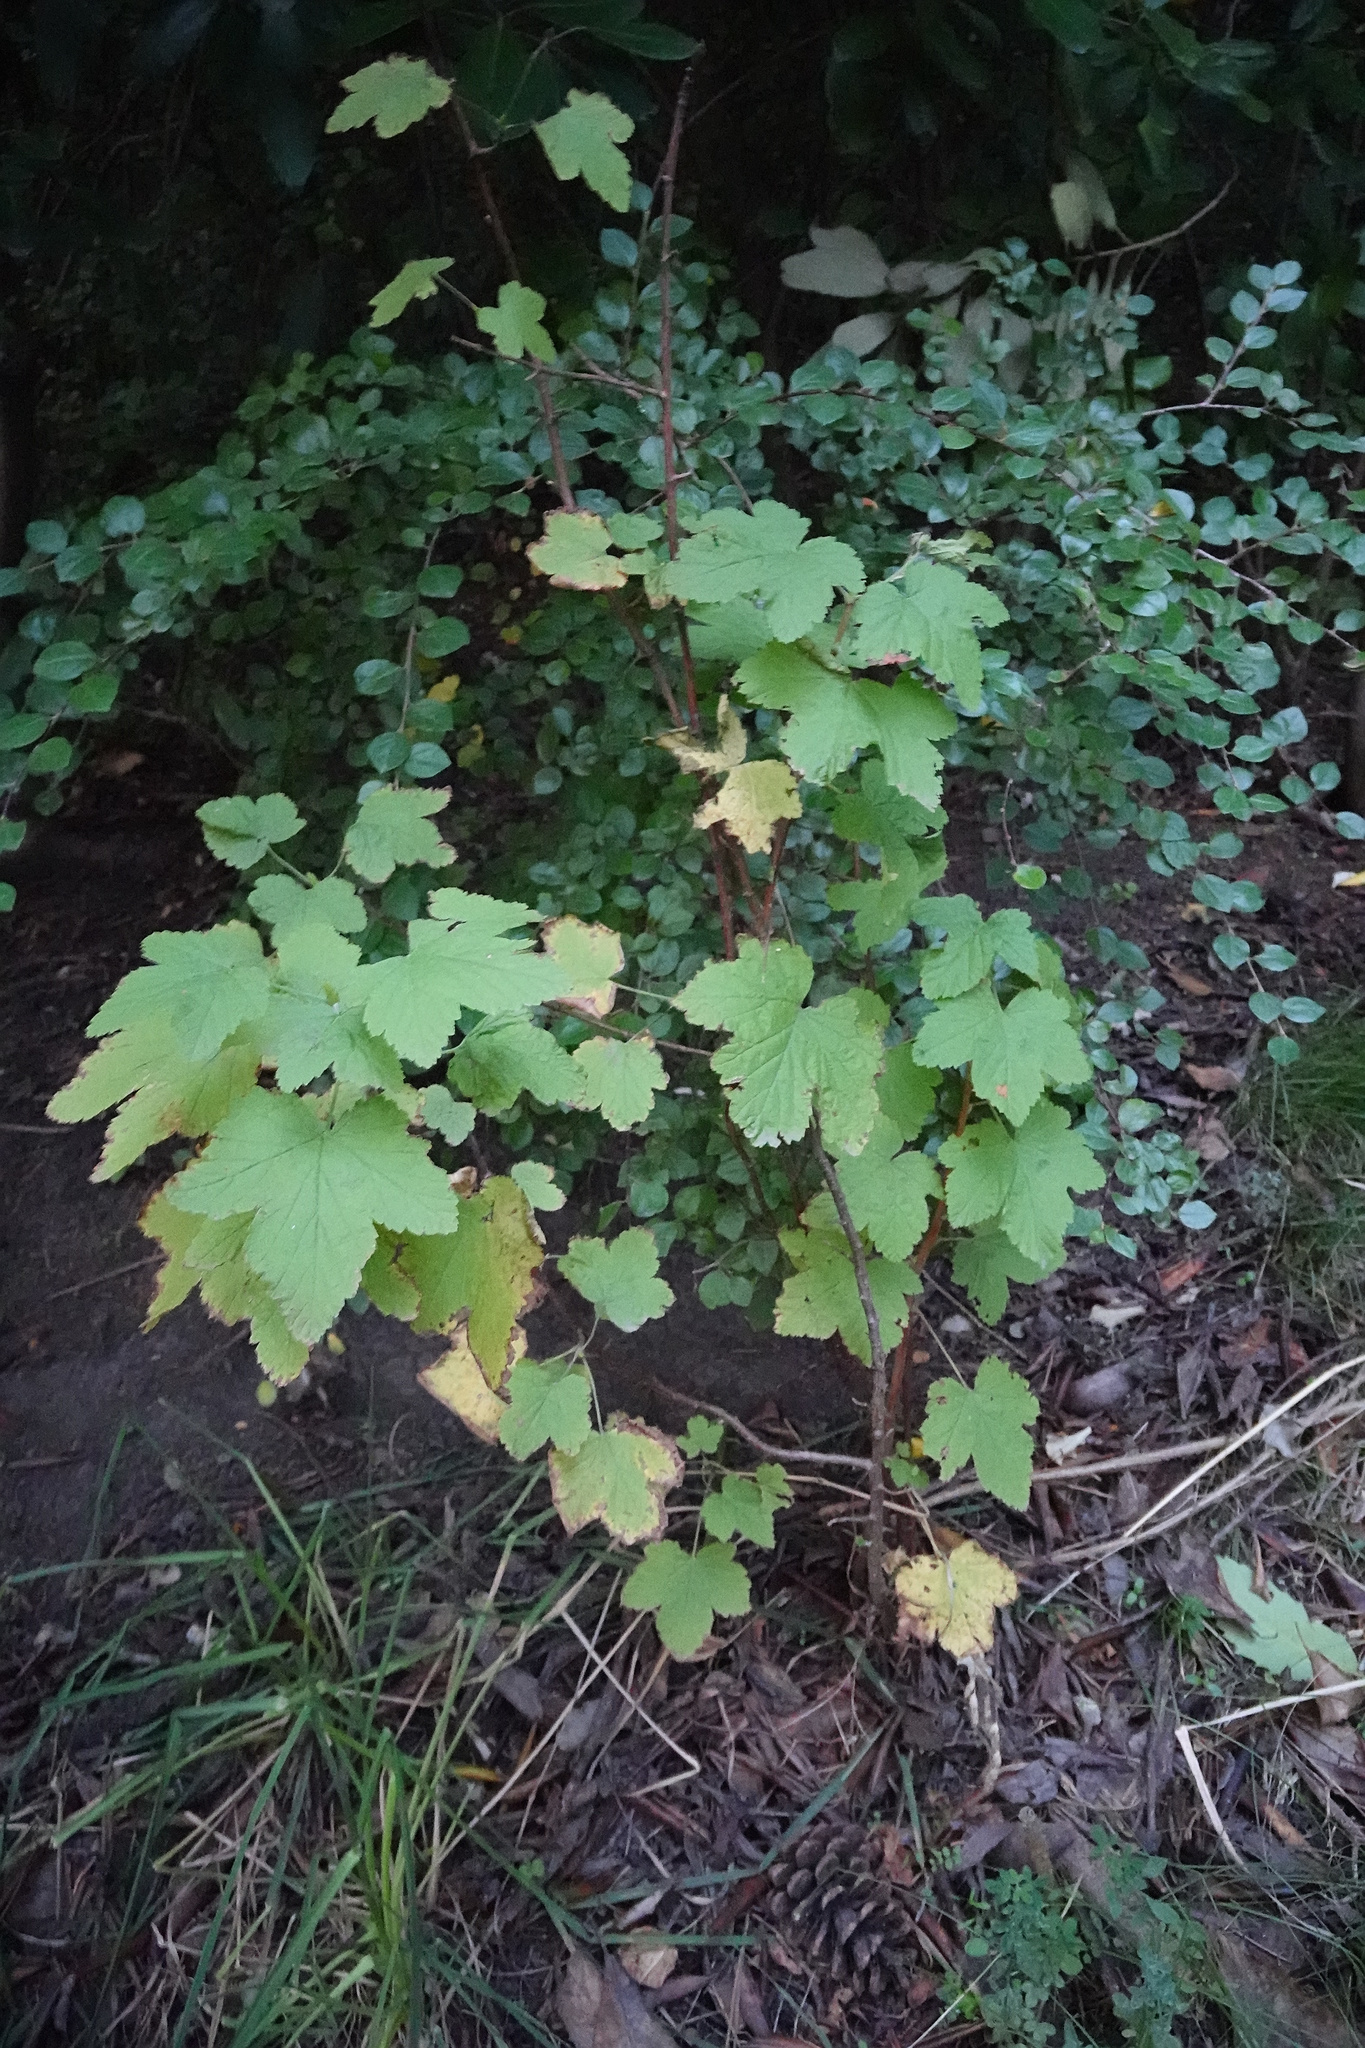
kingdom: Plantae
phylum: Tracheophyta
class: Magnoliopsida
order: Saxifragales
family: Grossulariaceae
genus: Ribes
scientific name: Ribes sanguineum
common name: Flowering currant
